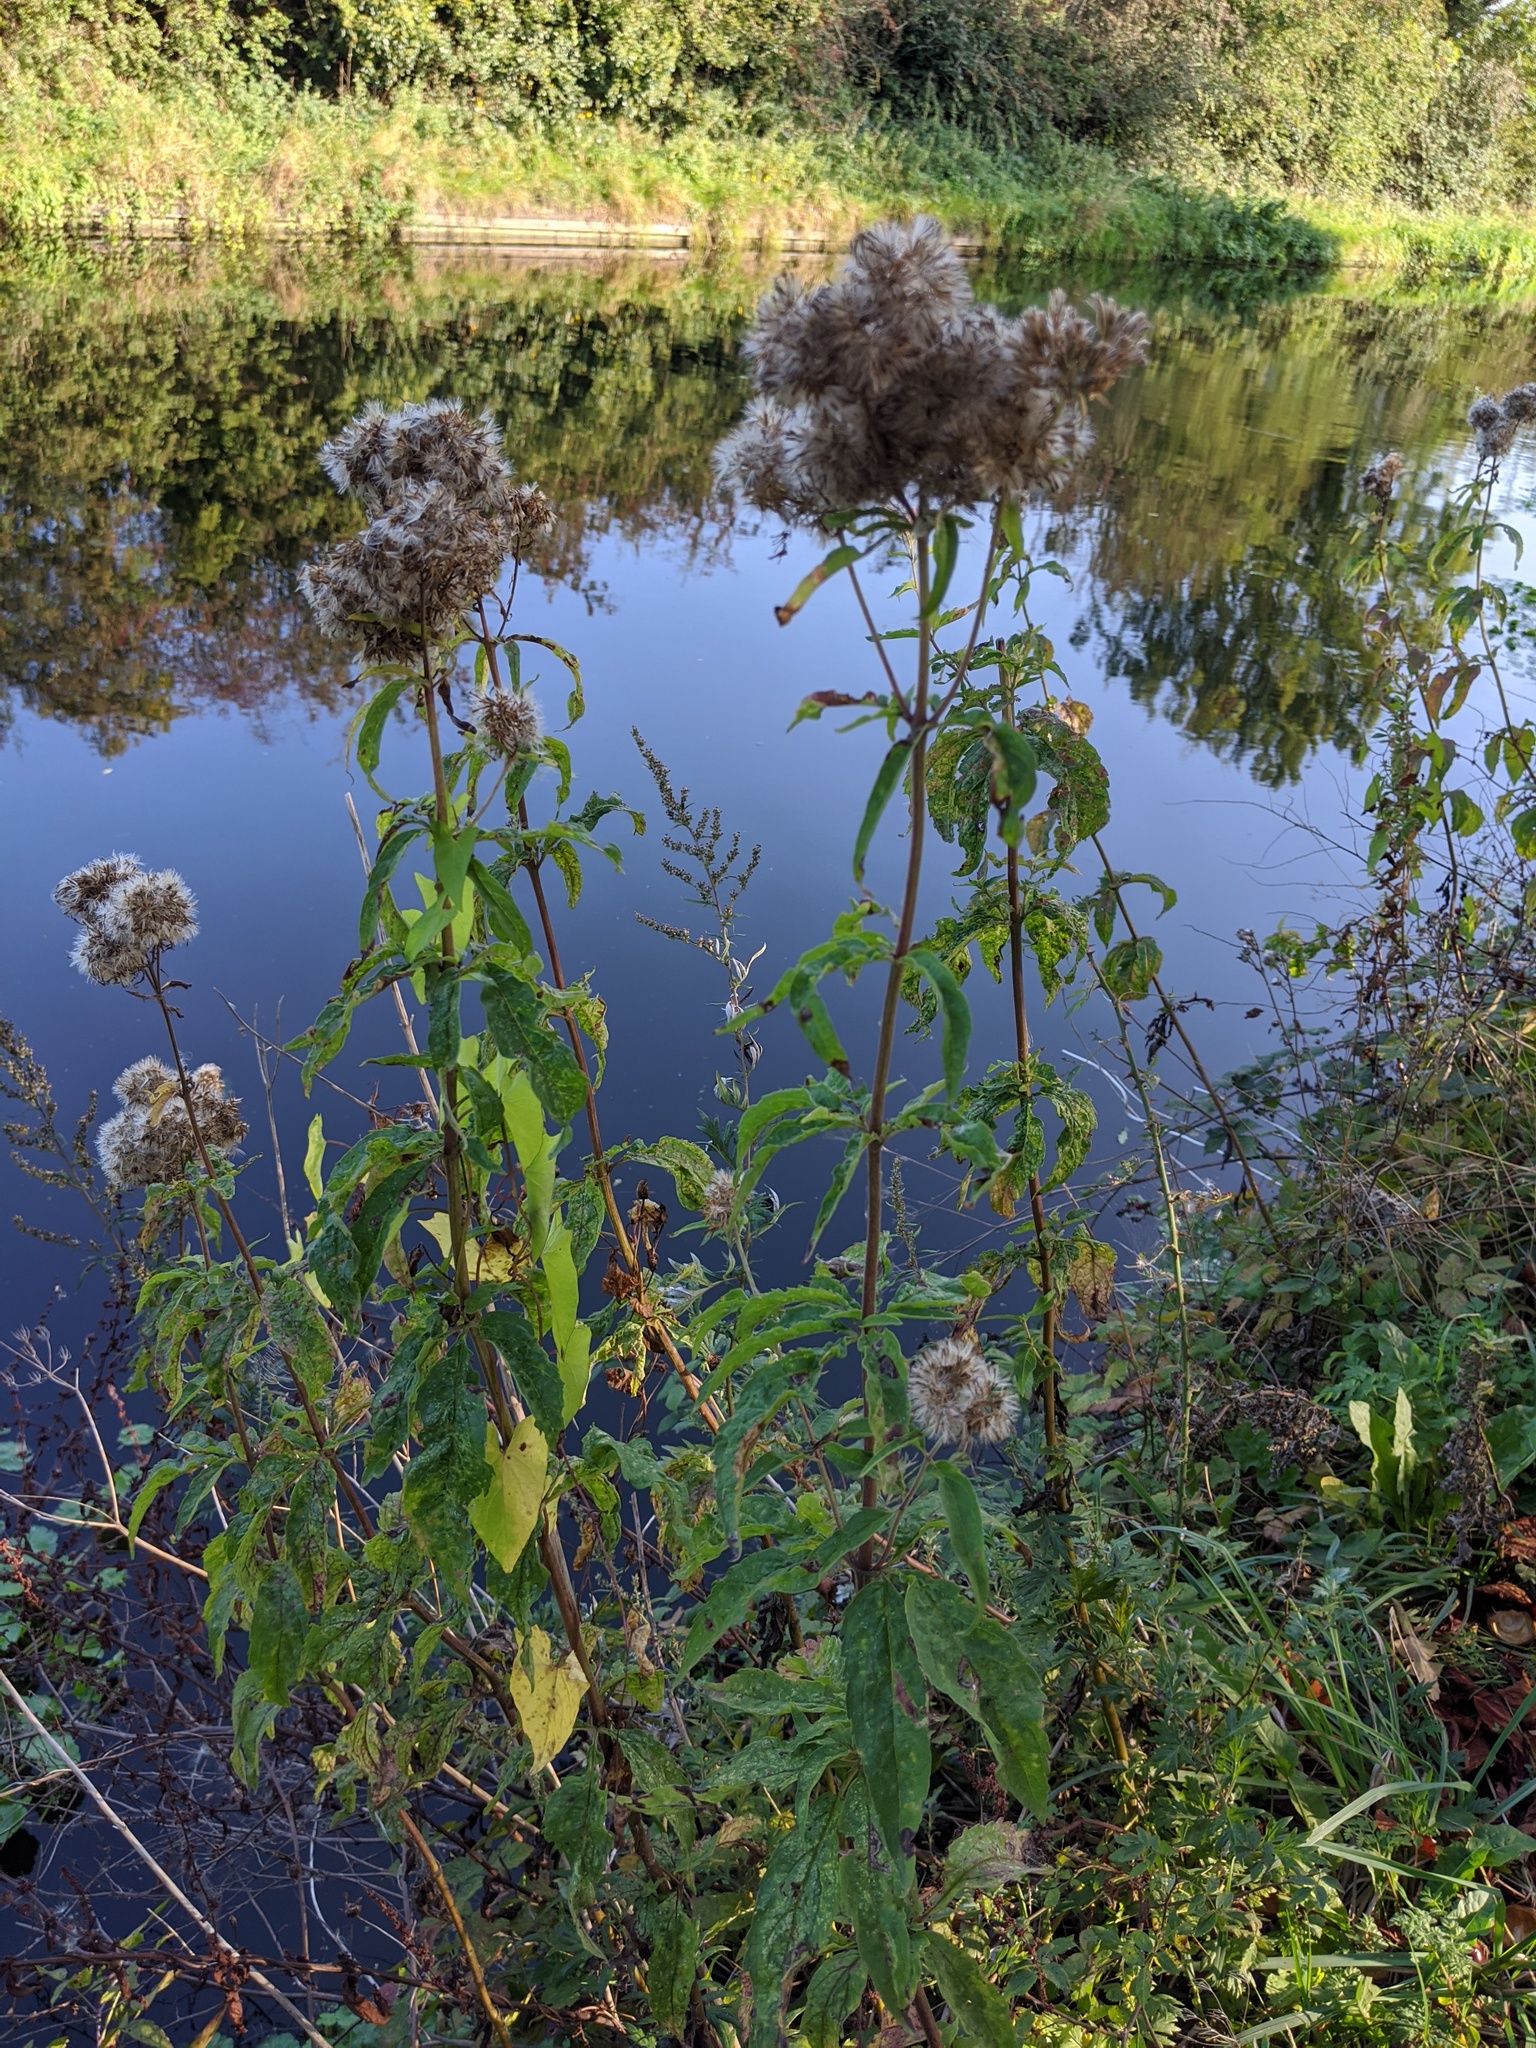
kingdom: Plantae
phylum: Tracheophyta
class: Magnoliopsida
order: Asterales
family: Asteraceae
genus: Eupatorium
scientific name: Eupatorium cannabinum
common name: Hemp-agrimony
